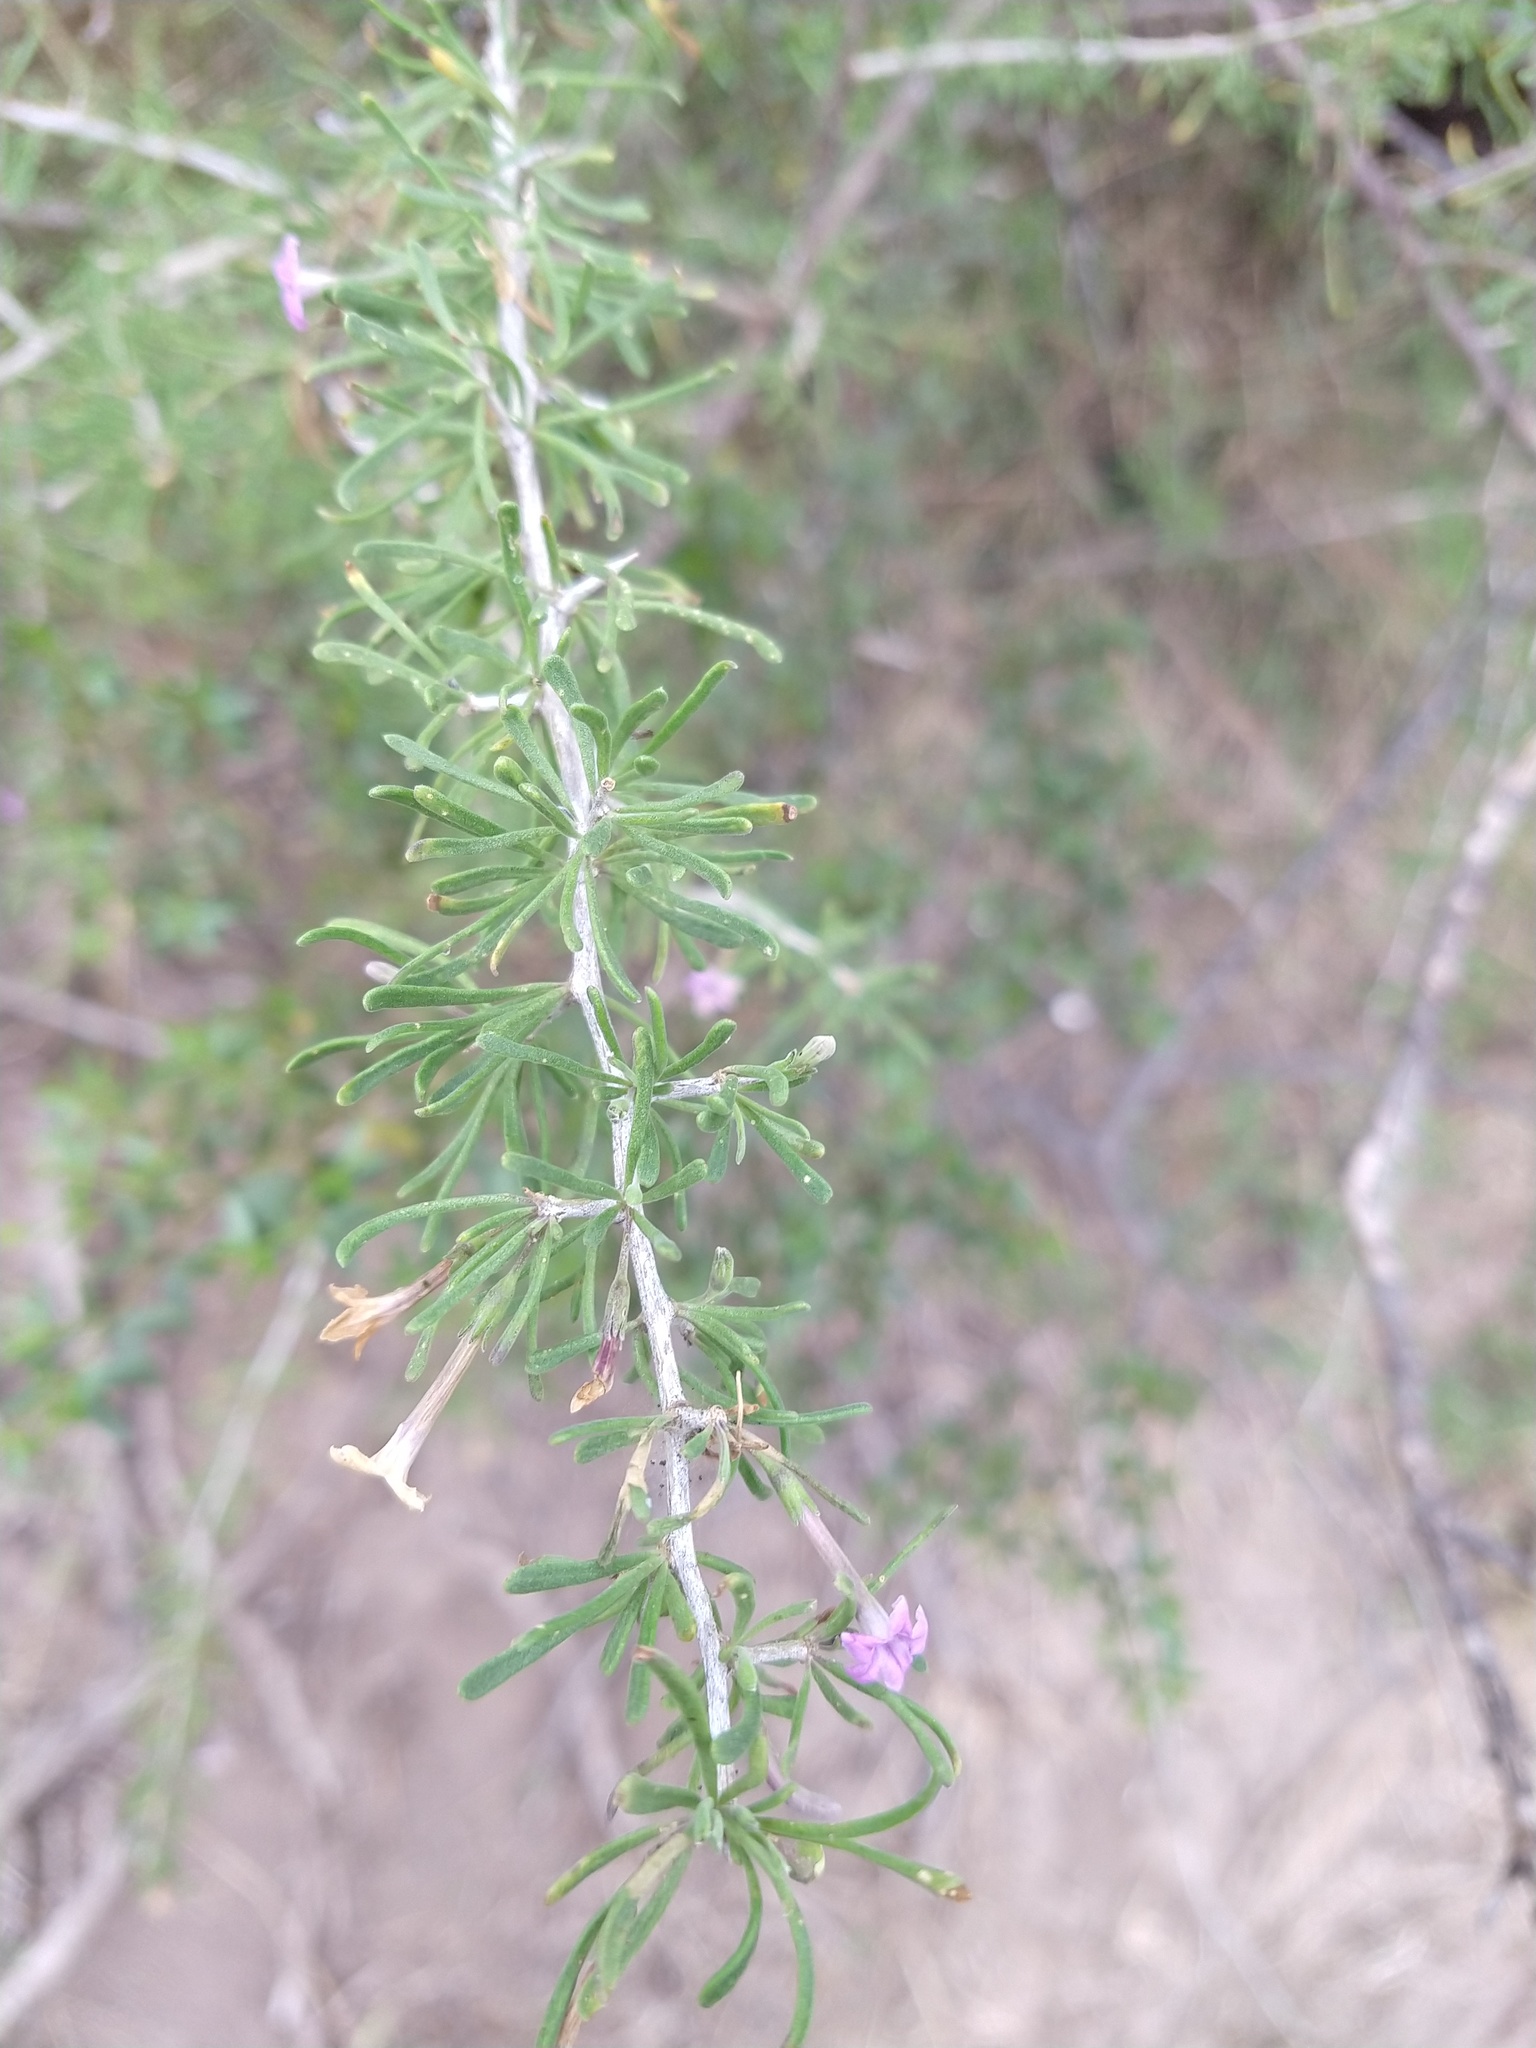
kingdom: Plantae
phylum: Tracheophyta
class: Magnoliopsida
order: Solanales
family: Solanaceae
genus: Lycium
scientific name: Lycium
